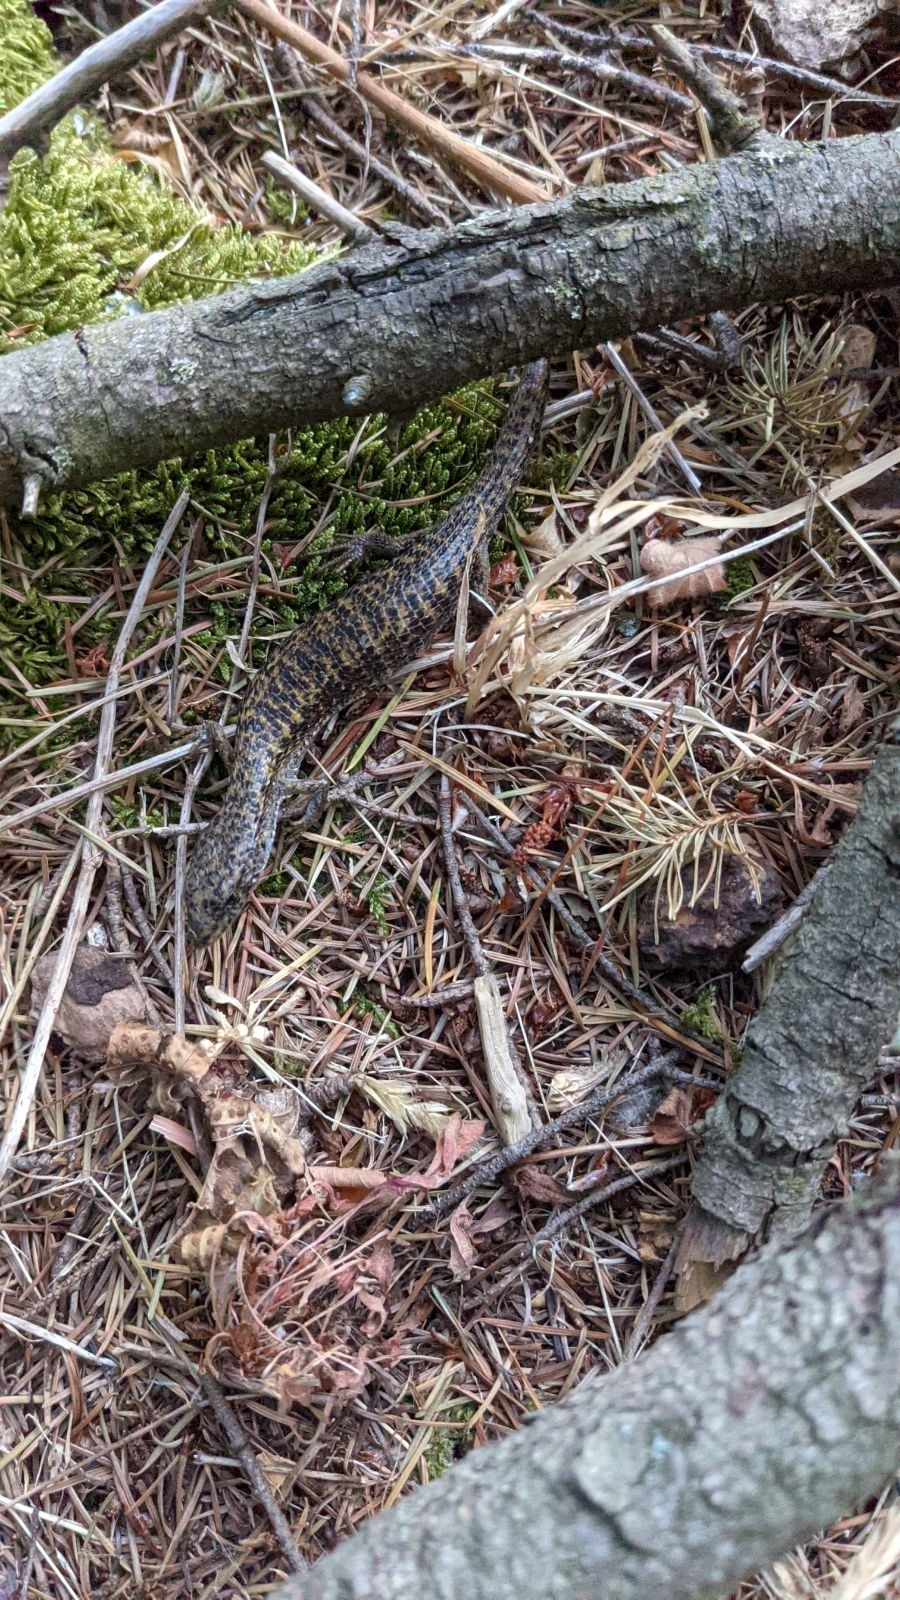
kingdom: Animalia
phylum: Chordata
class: Squamata
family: Anguidae
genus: Elgaria
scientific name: Elgaria coerulea
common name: Northern alligator lizard
